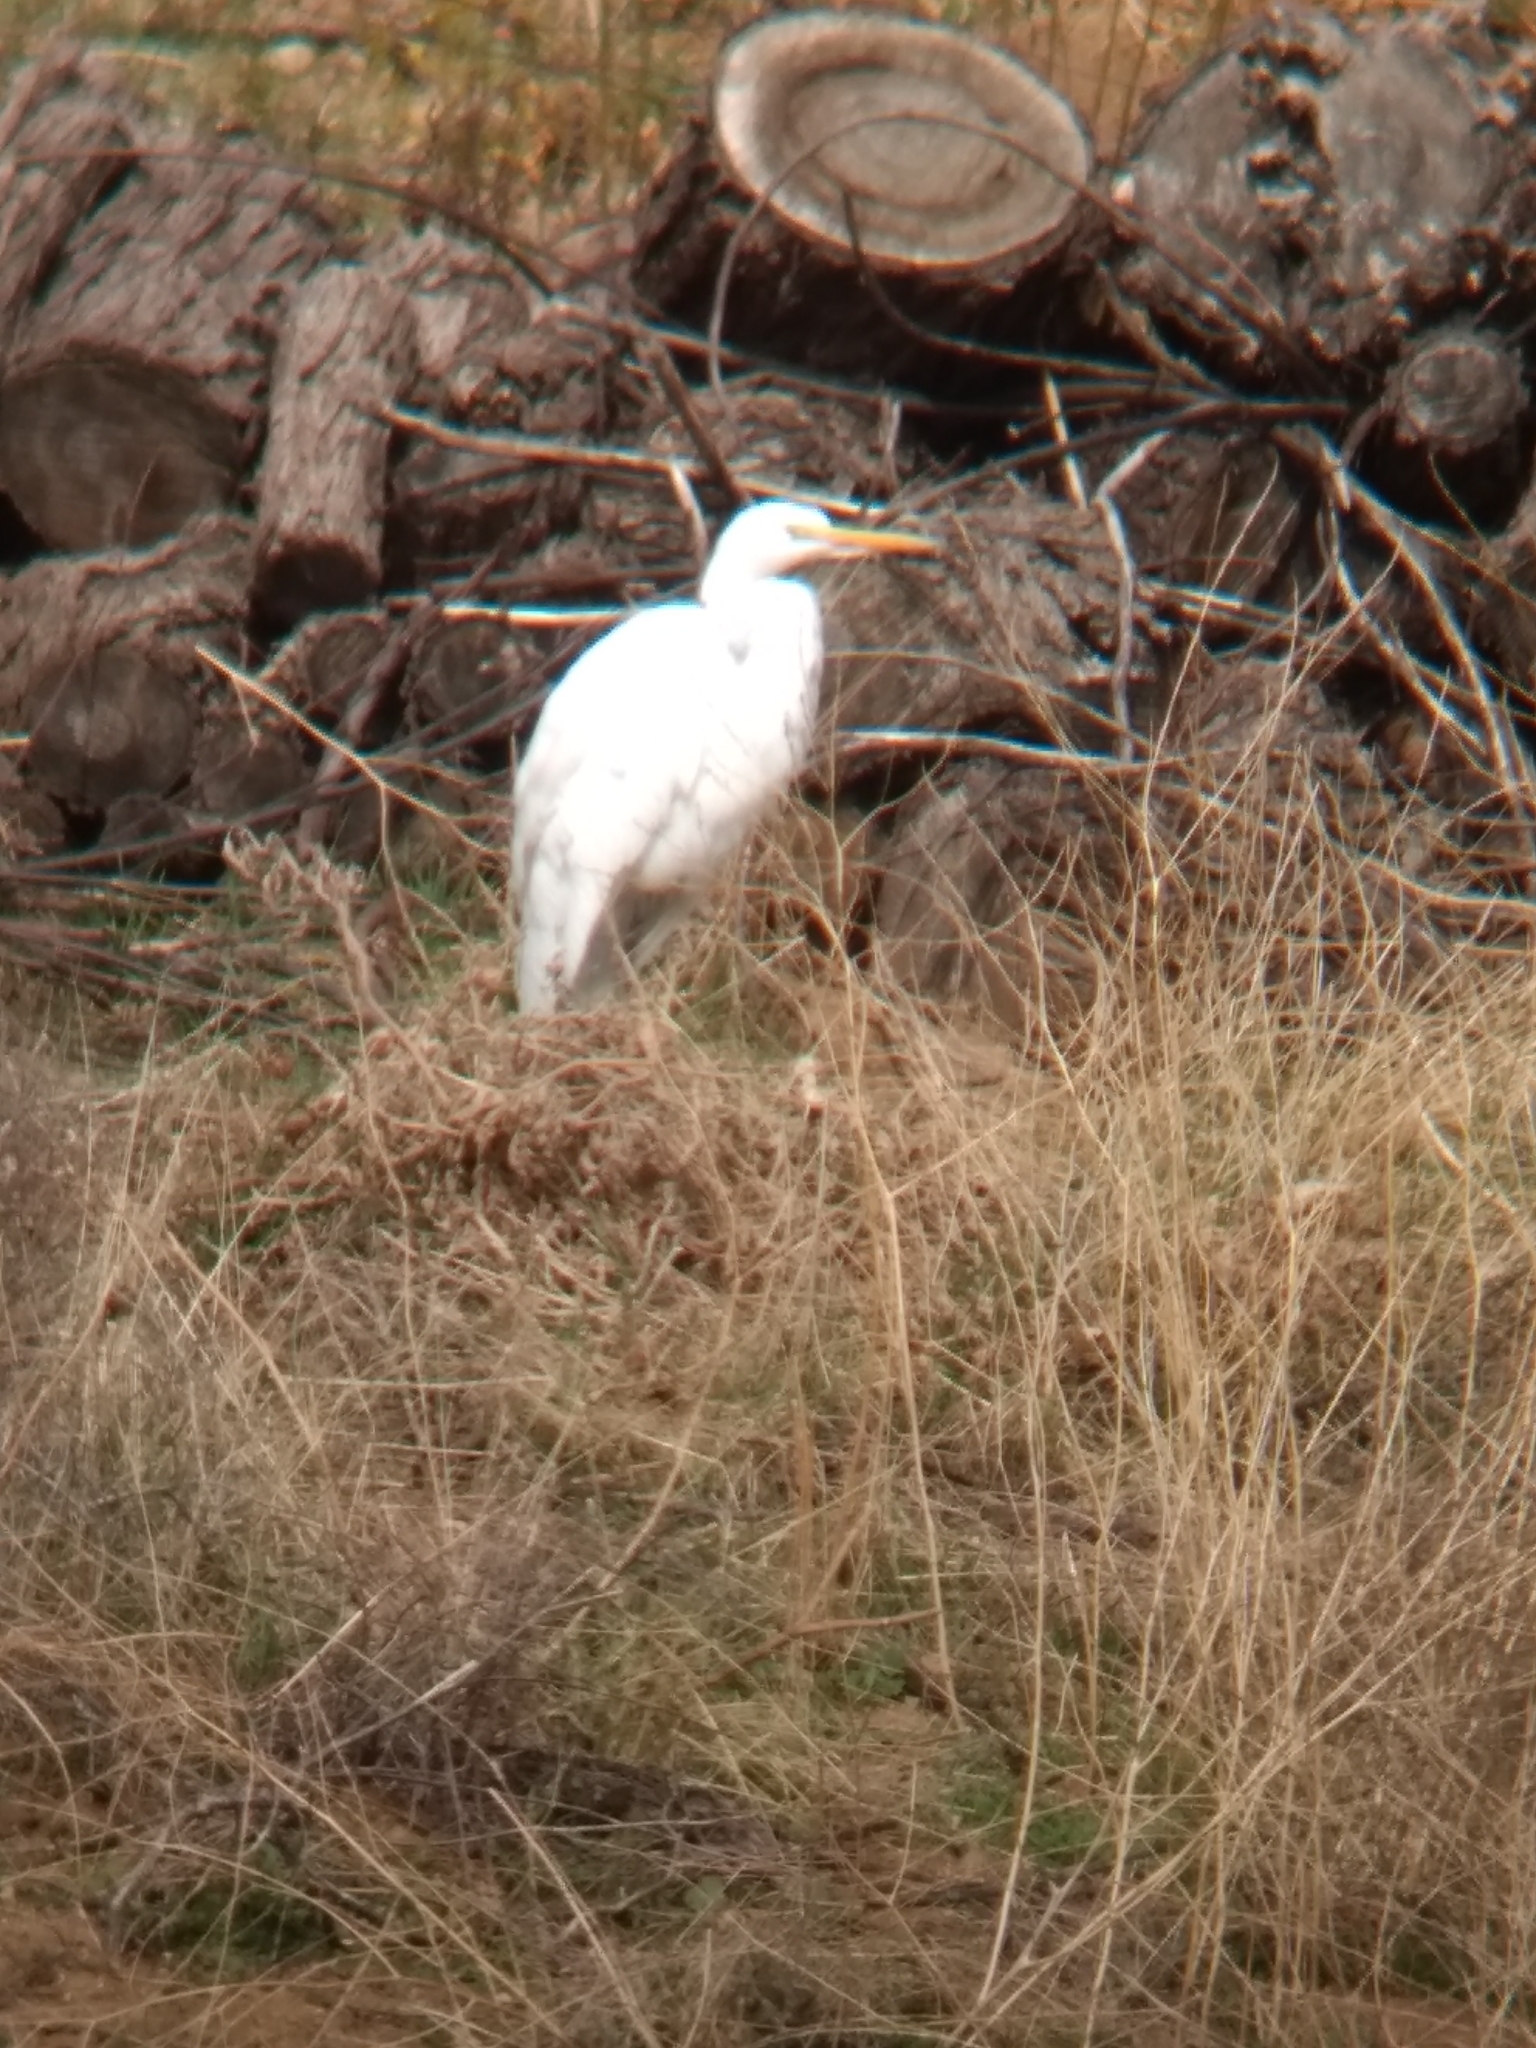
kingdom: Animalia
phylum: Chordata
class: Aves
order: Pelecaniformes
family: Ardeidae
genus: Ardea
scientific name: Ardea alba
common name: Great egret
